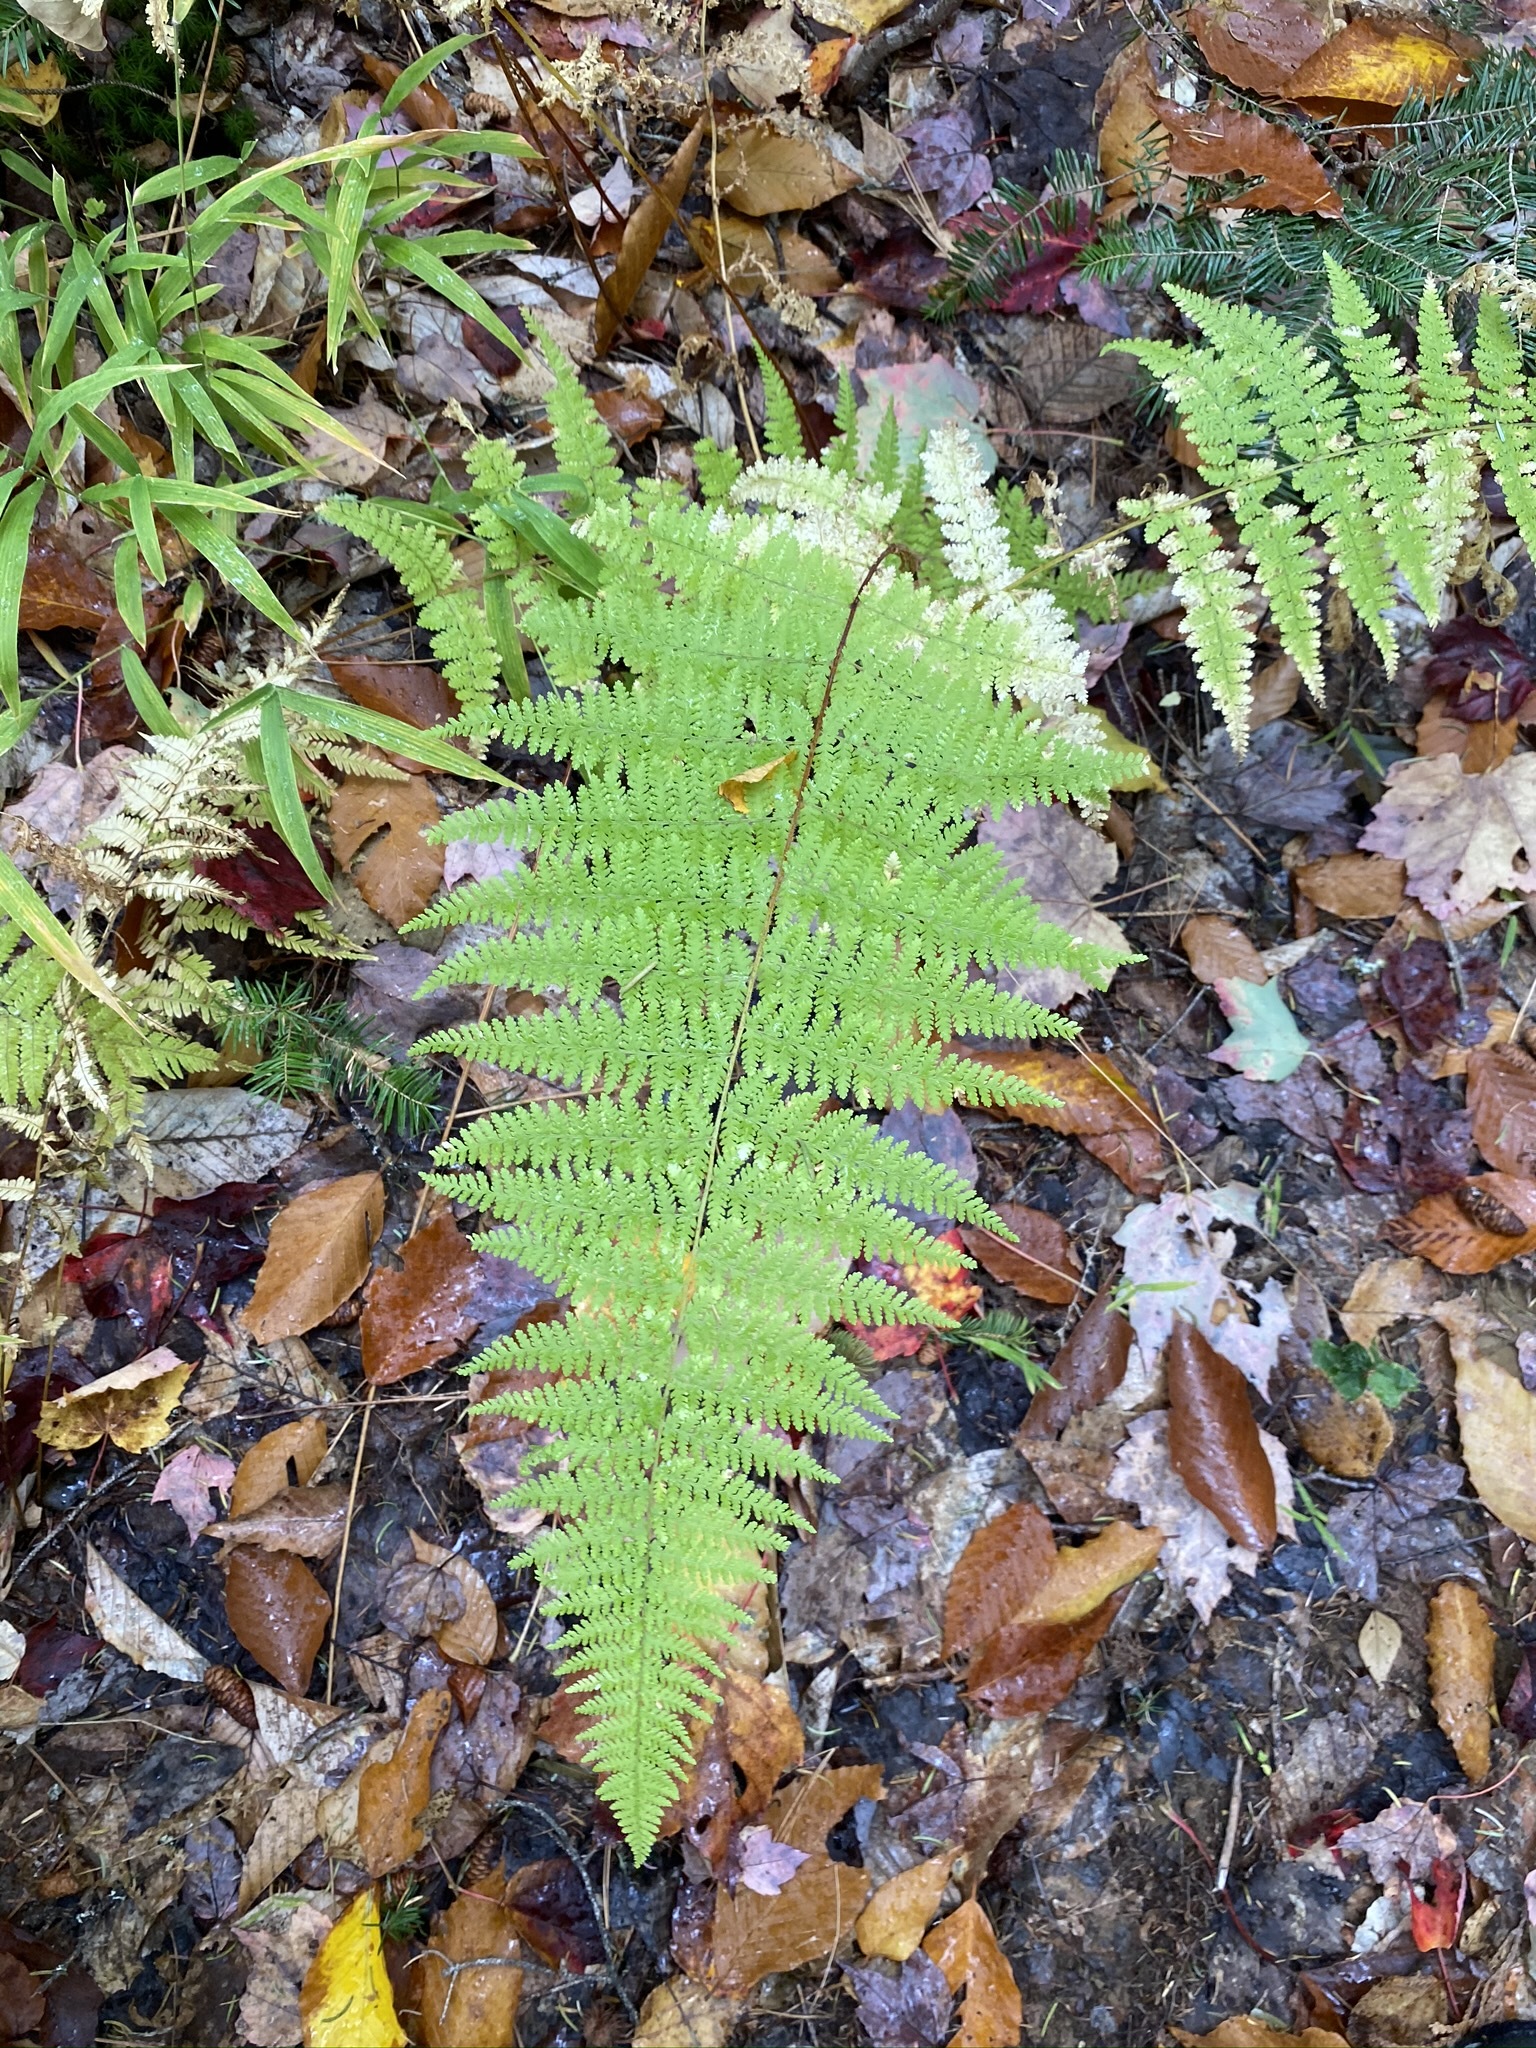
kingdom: Plantae
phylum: Tracheophyta
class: Polypodiopsida
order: Polypodiales
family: Dennstaedtiaceae
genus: Sitobolium
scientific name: Sitobolium punctilobum
